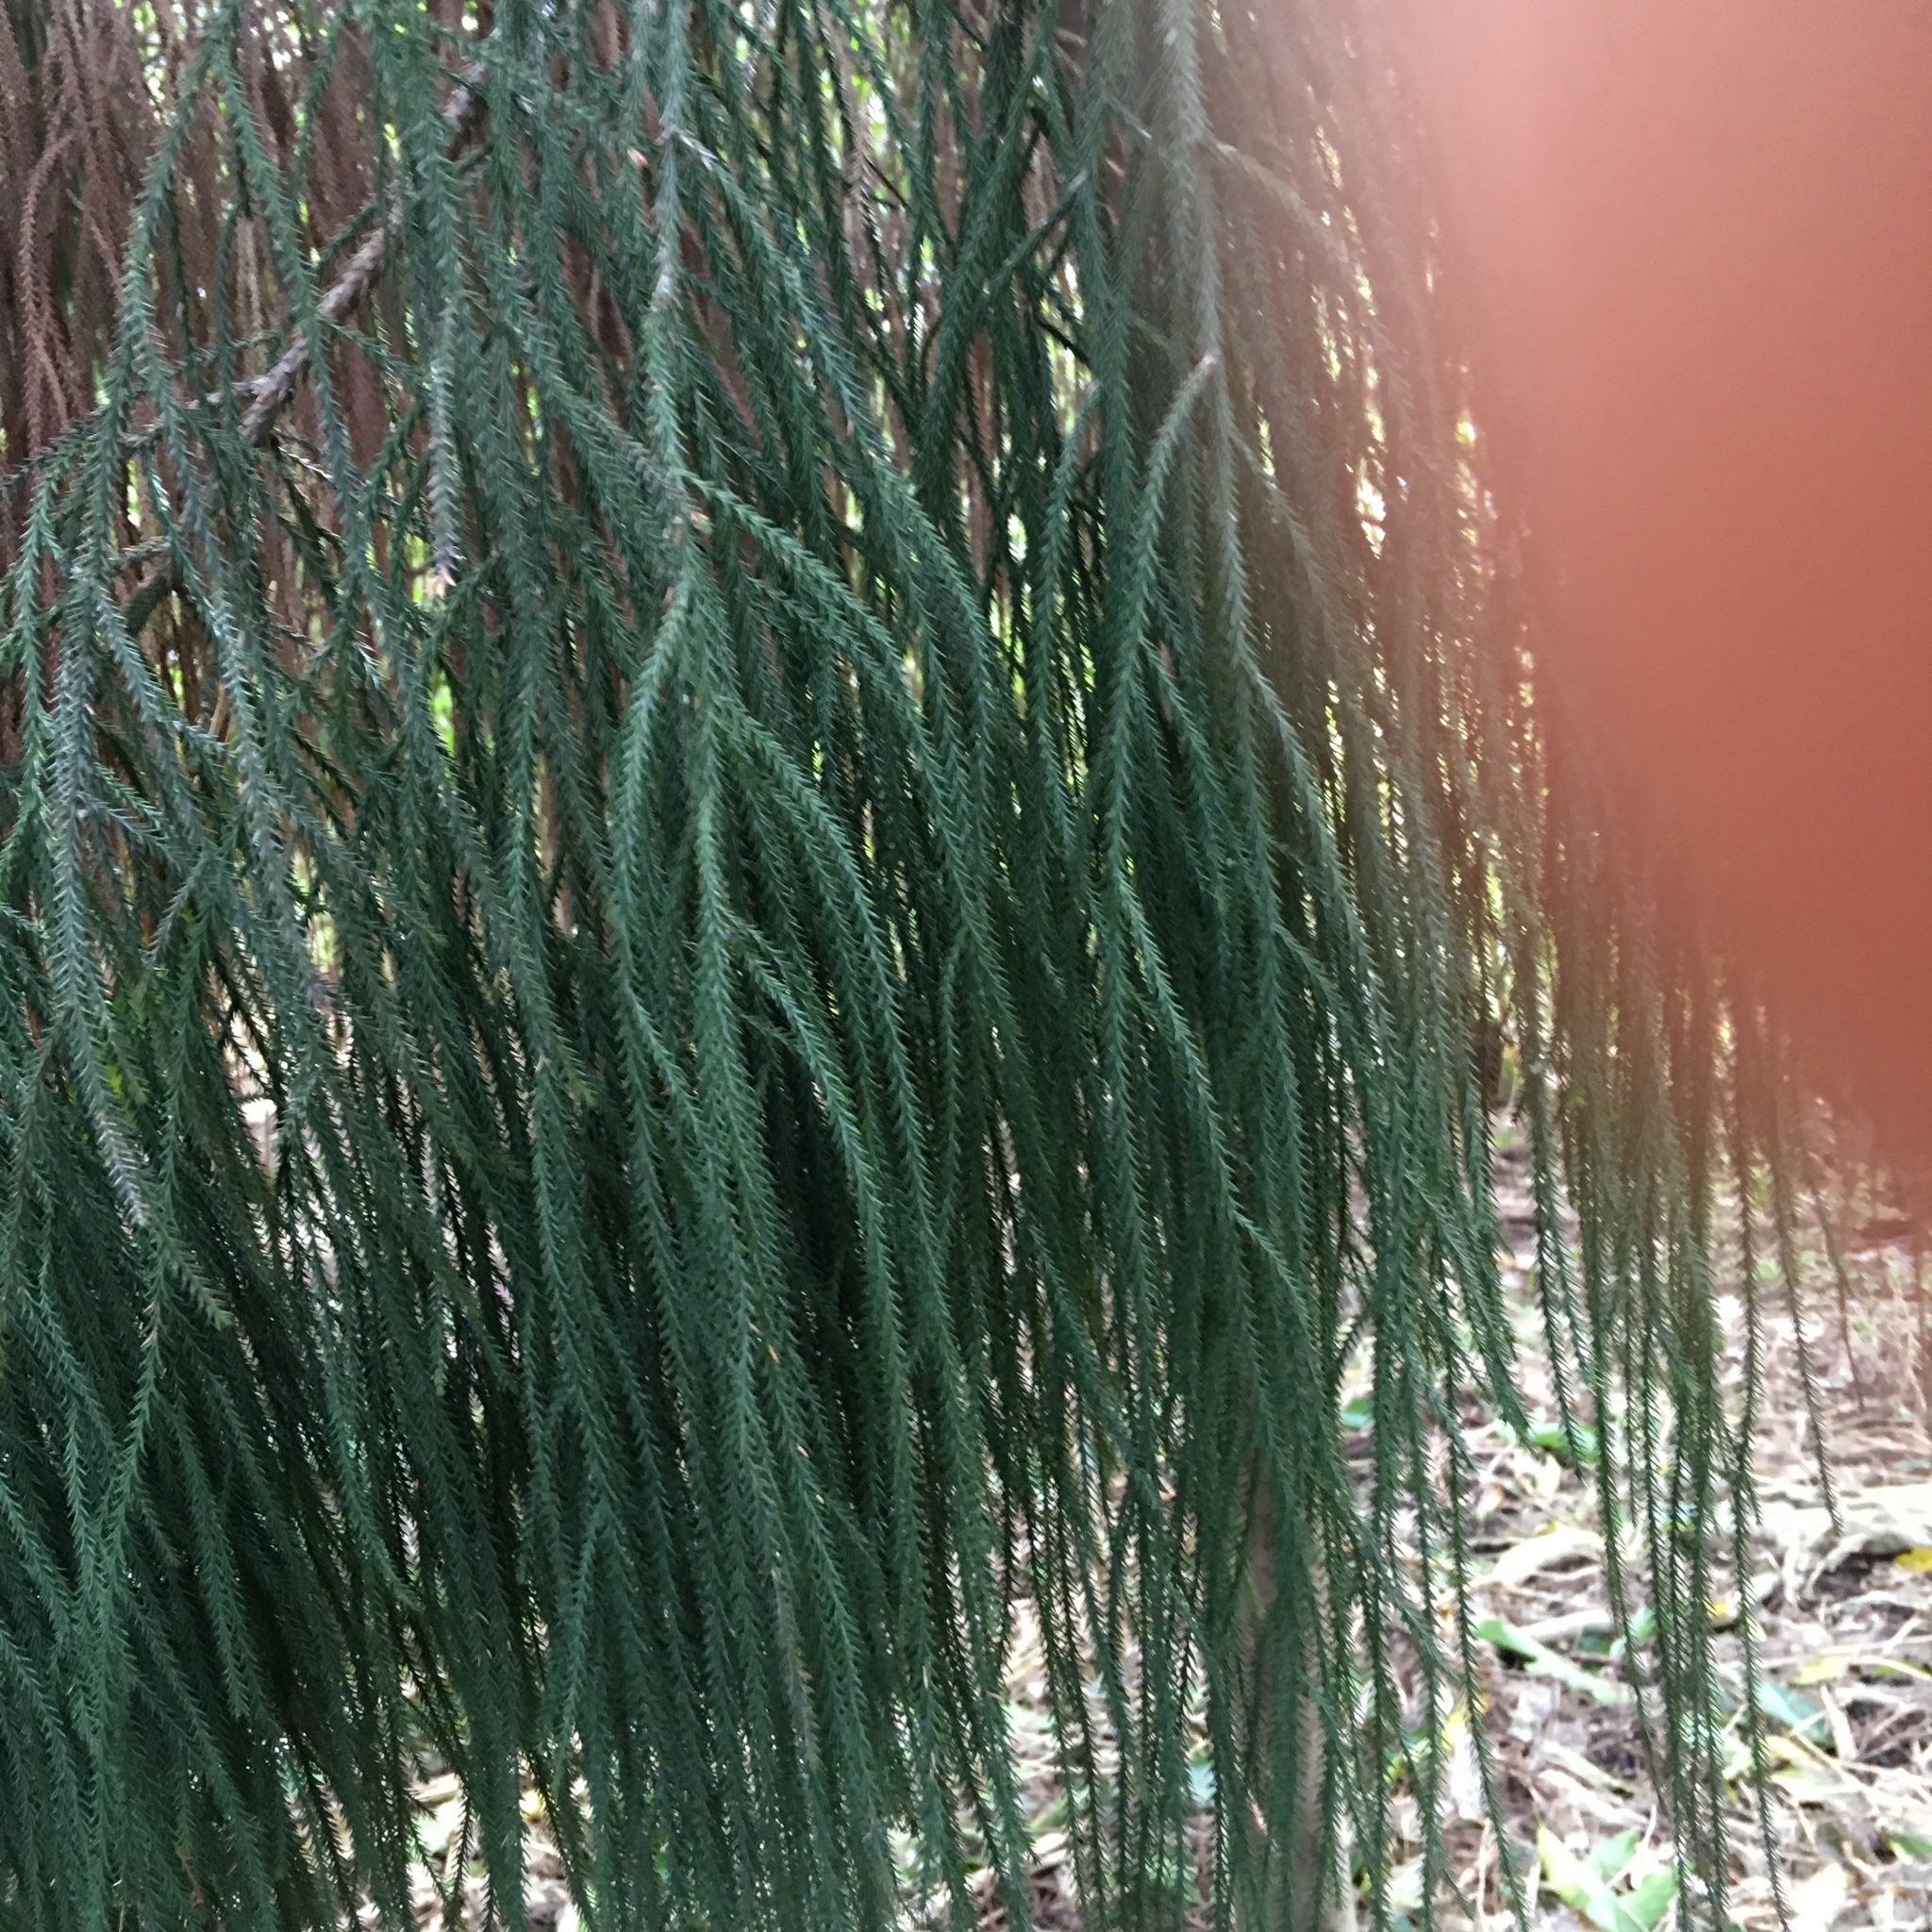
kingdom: Plantae
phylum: Tracheophyta
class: Pinopsida
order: Pinales
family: Podocarpaceae
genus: Dacrydium
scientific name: Dacrydium cupressinum
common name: Red pine
